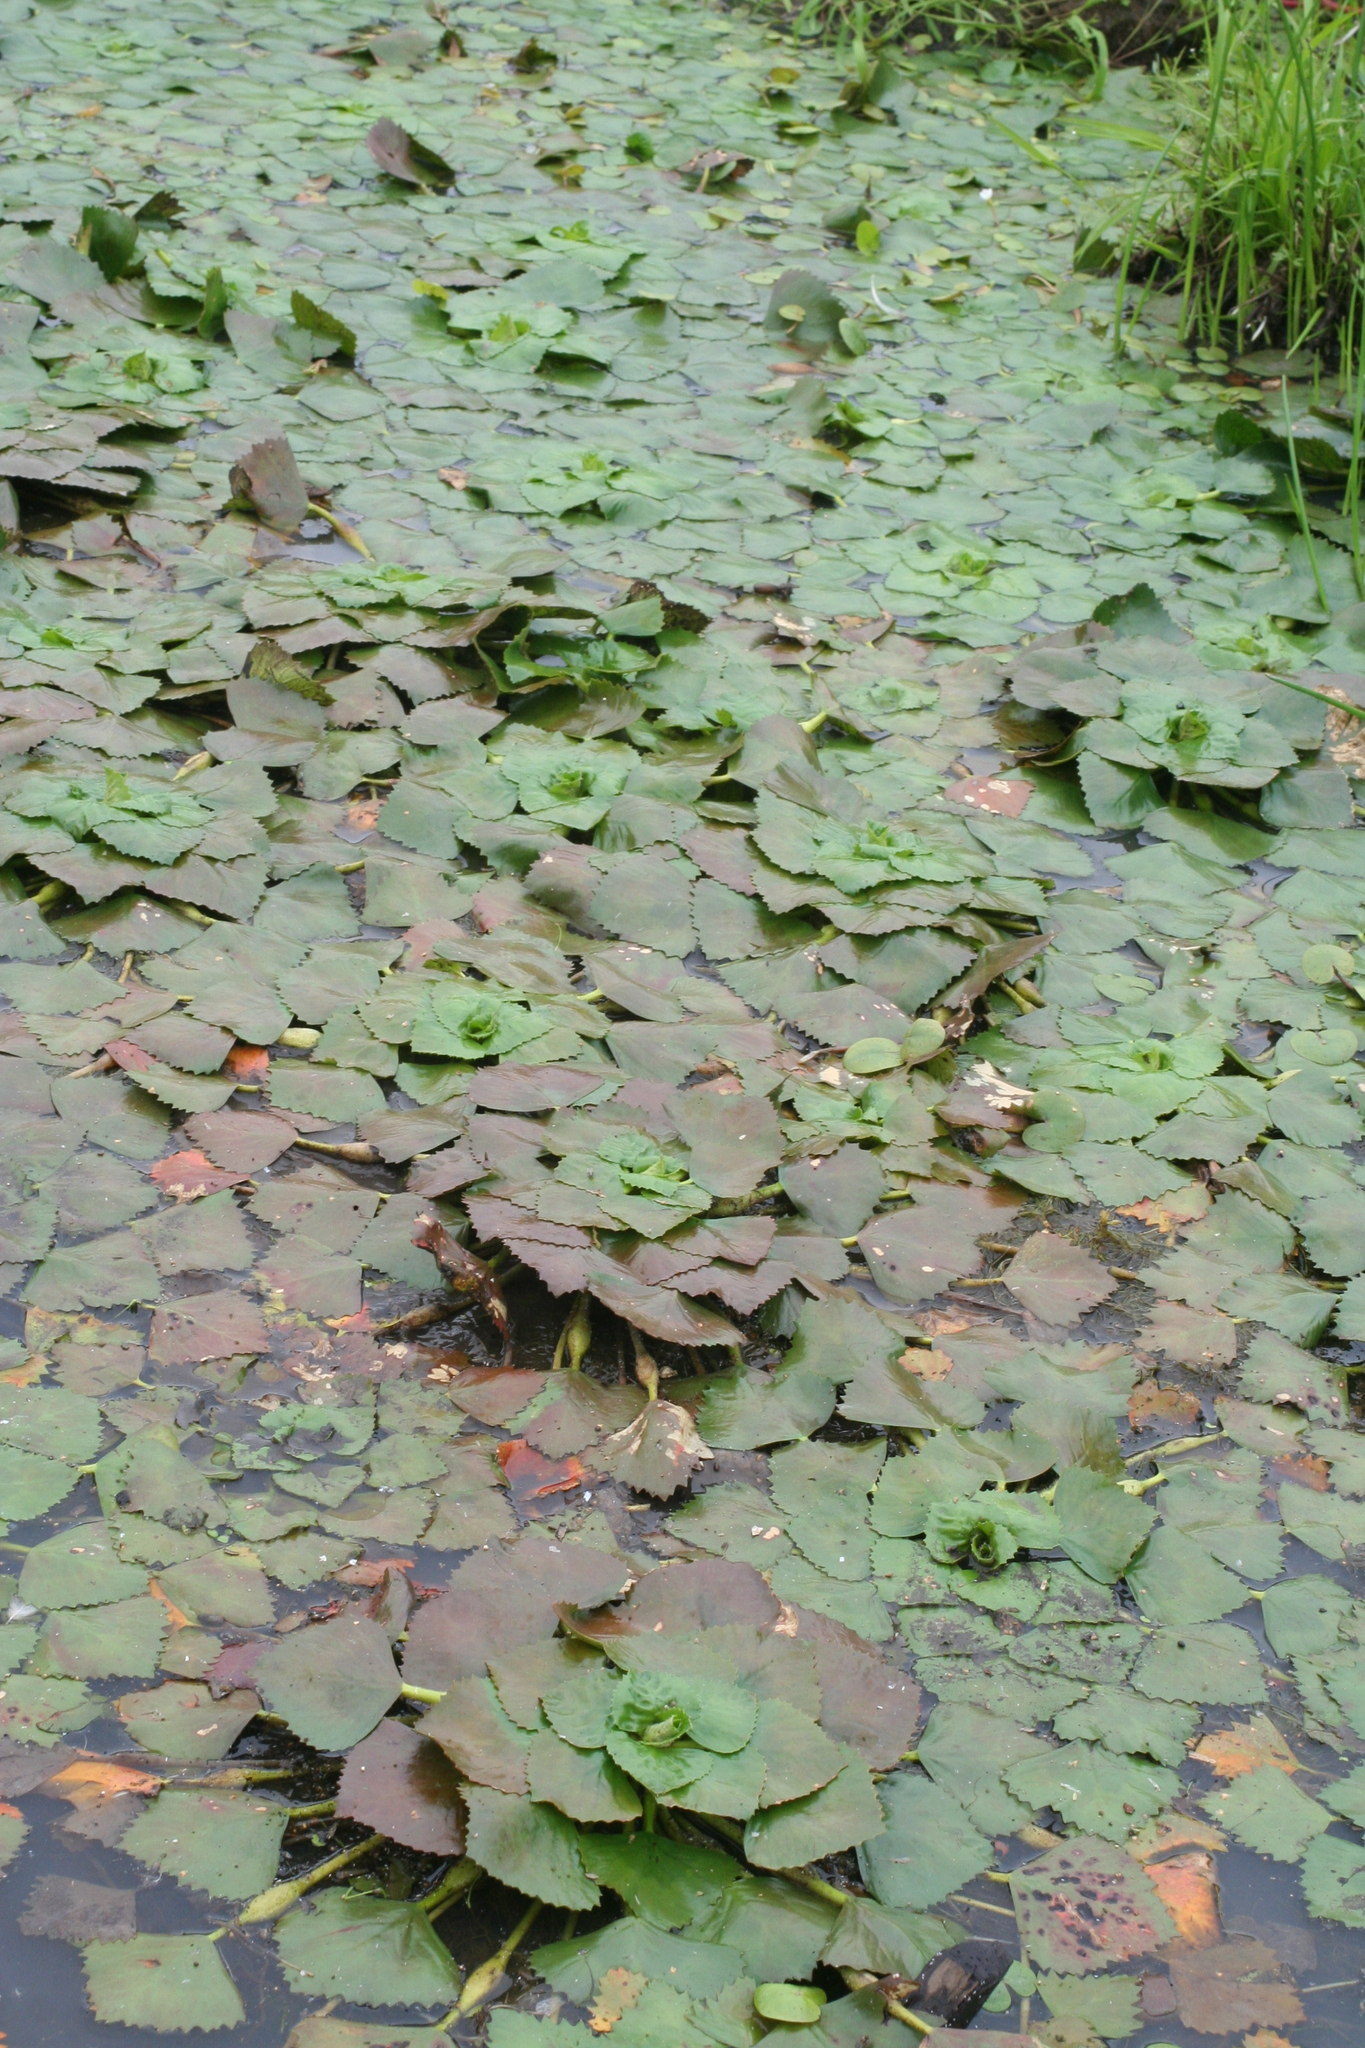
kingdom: Plantae
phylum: Tracheophyta
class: Magnoliopsida
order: Myrtales
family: Lythraceae
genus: Trapa
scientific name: Trapa natans
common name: Water chestnut
